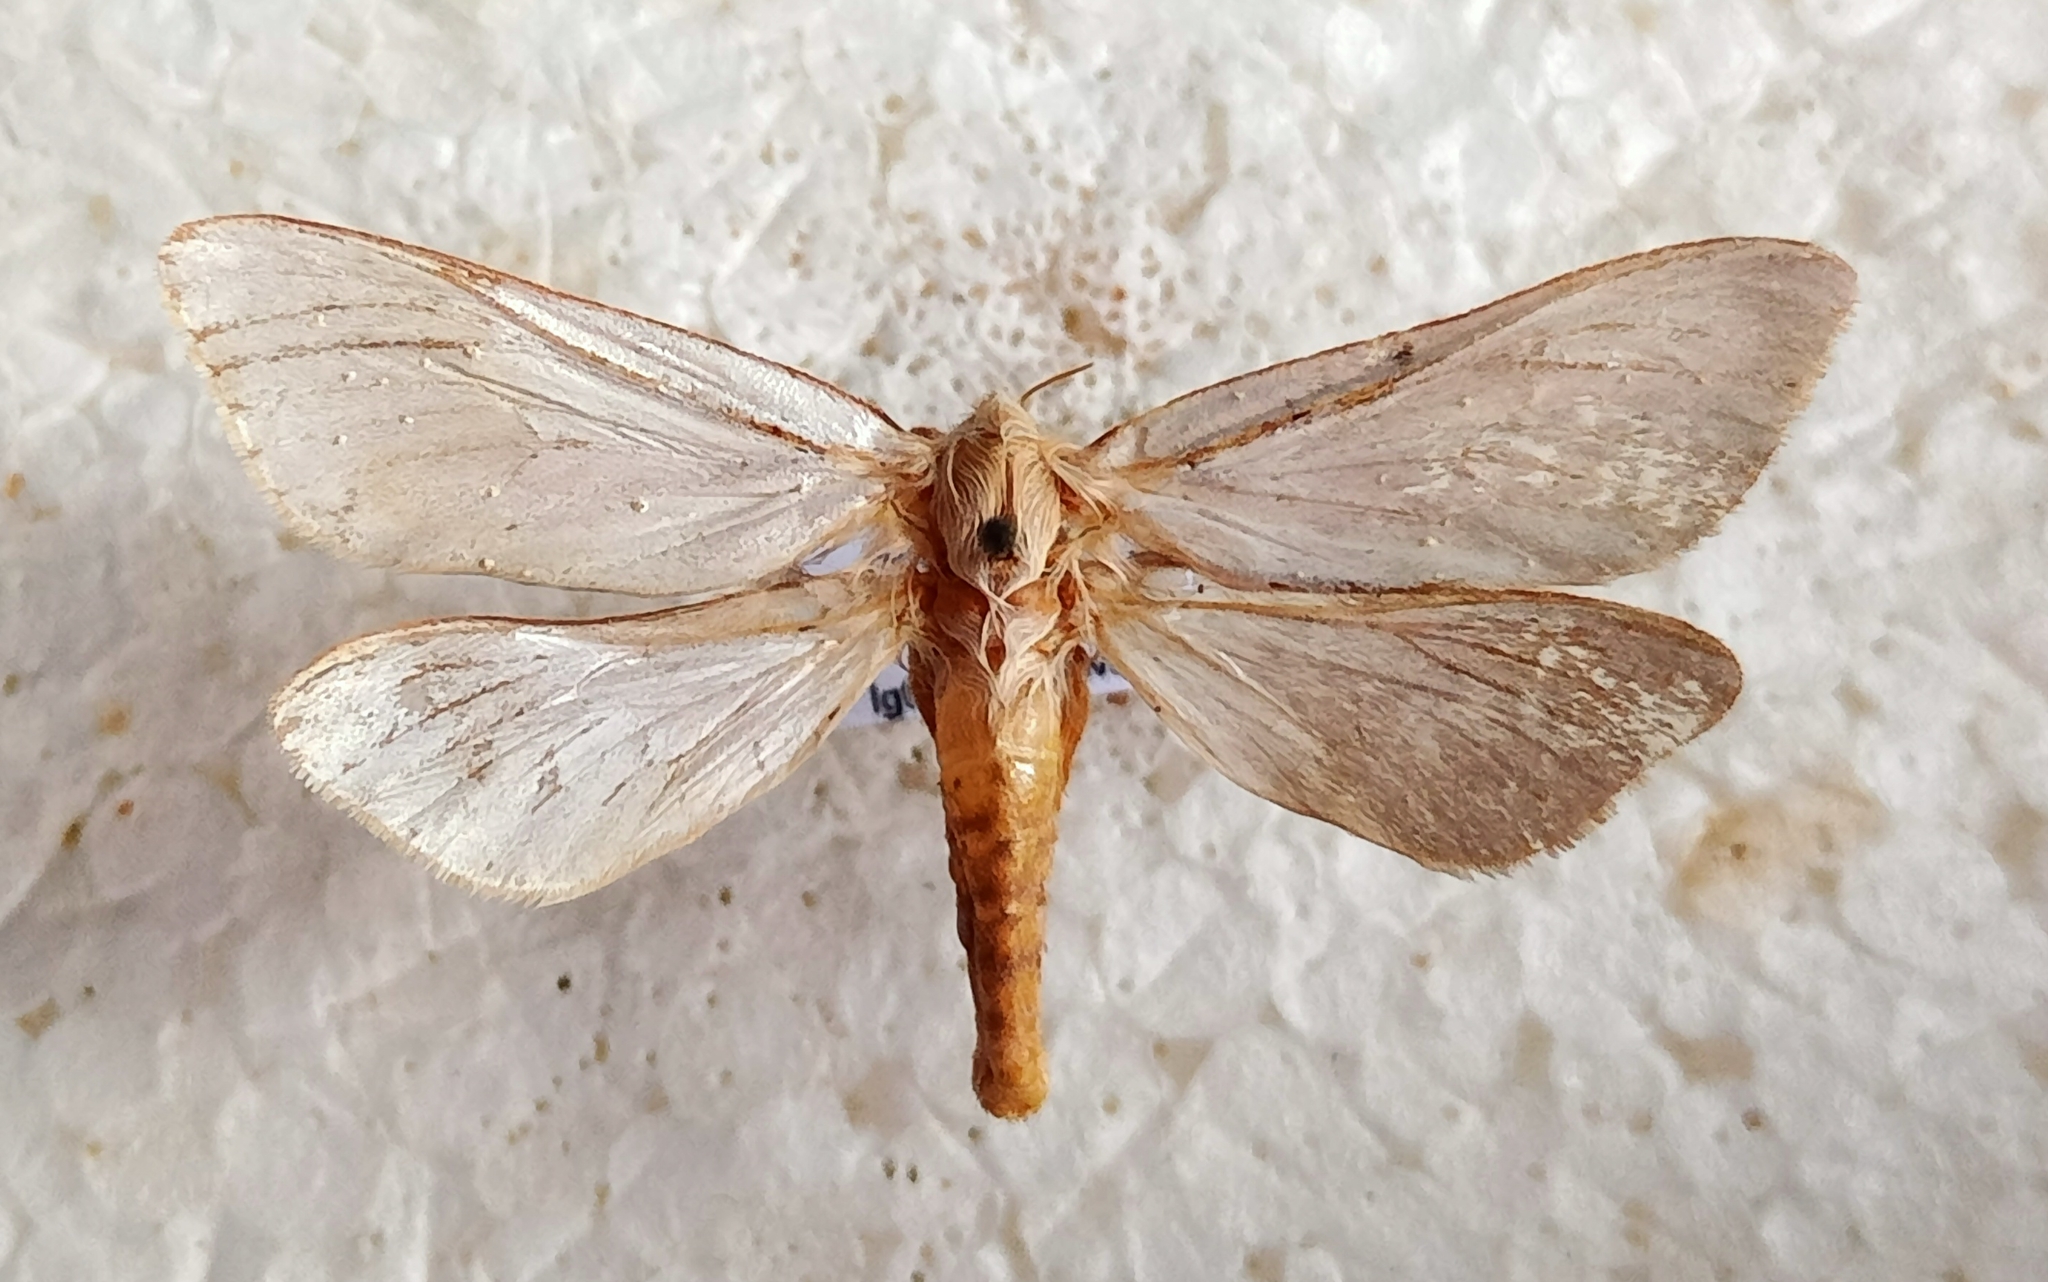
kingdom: Animalia
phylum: Arthropoda
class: Insecta
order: Lepidoptera
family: Hepialidae
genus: Hepialus
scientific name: Hepialus humuli
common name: Ghost moth
